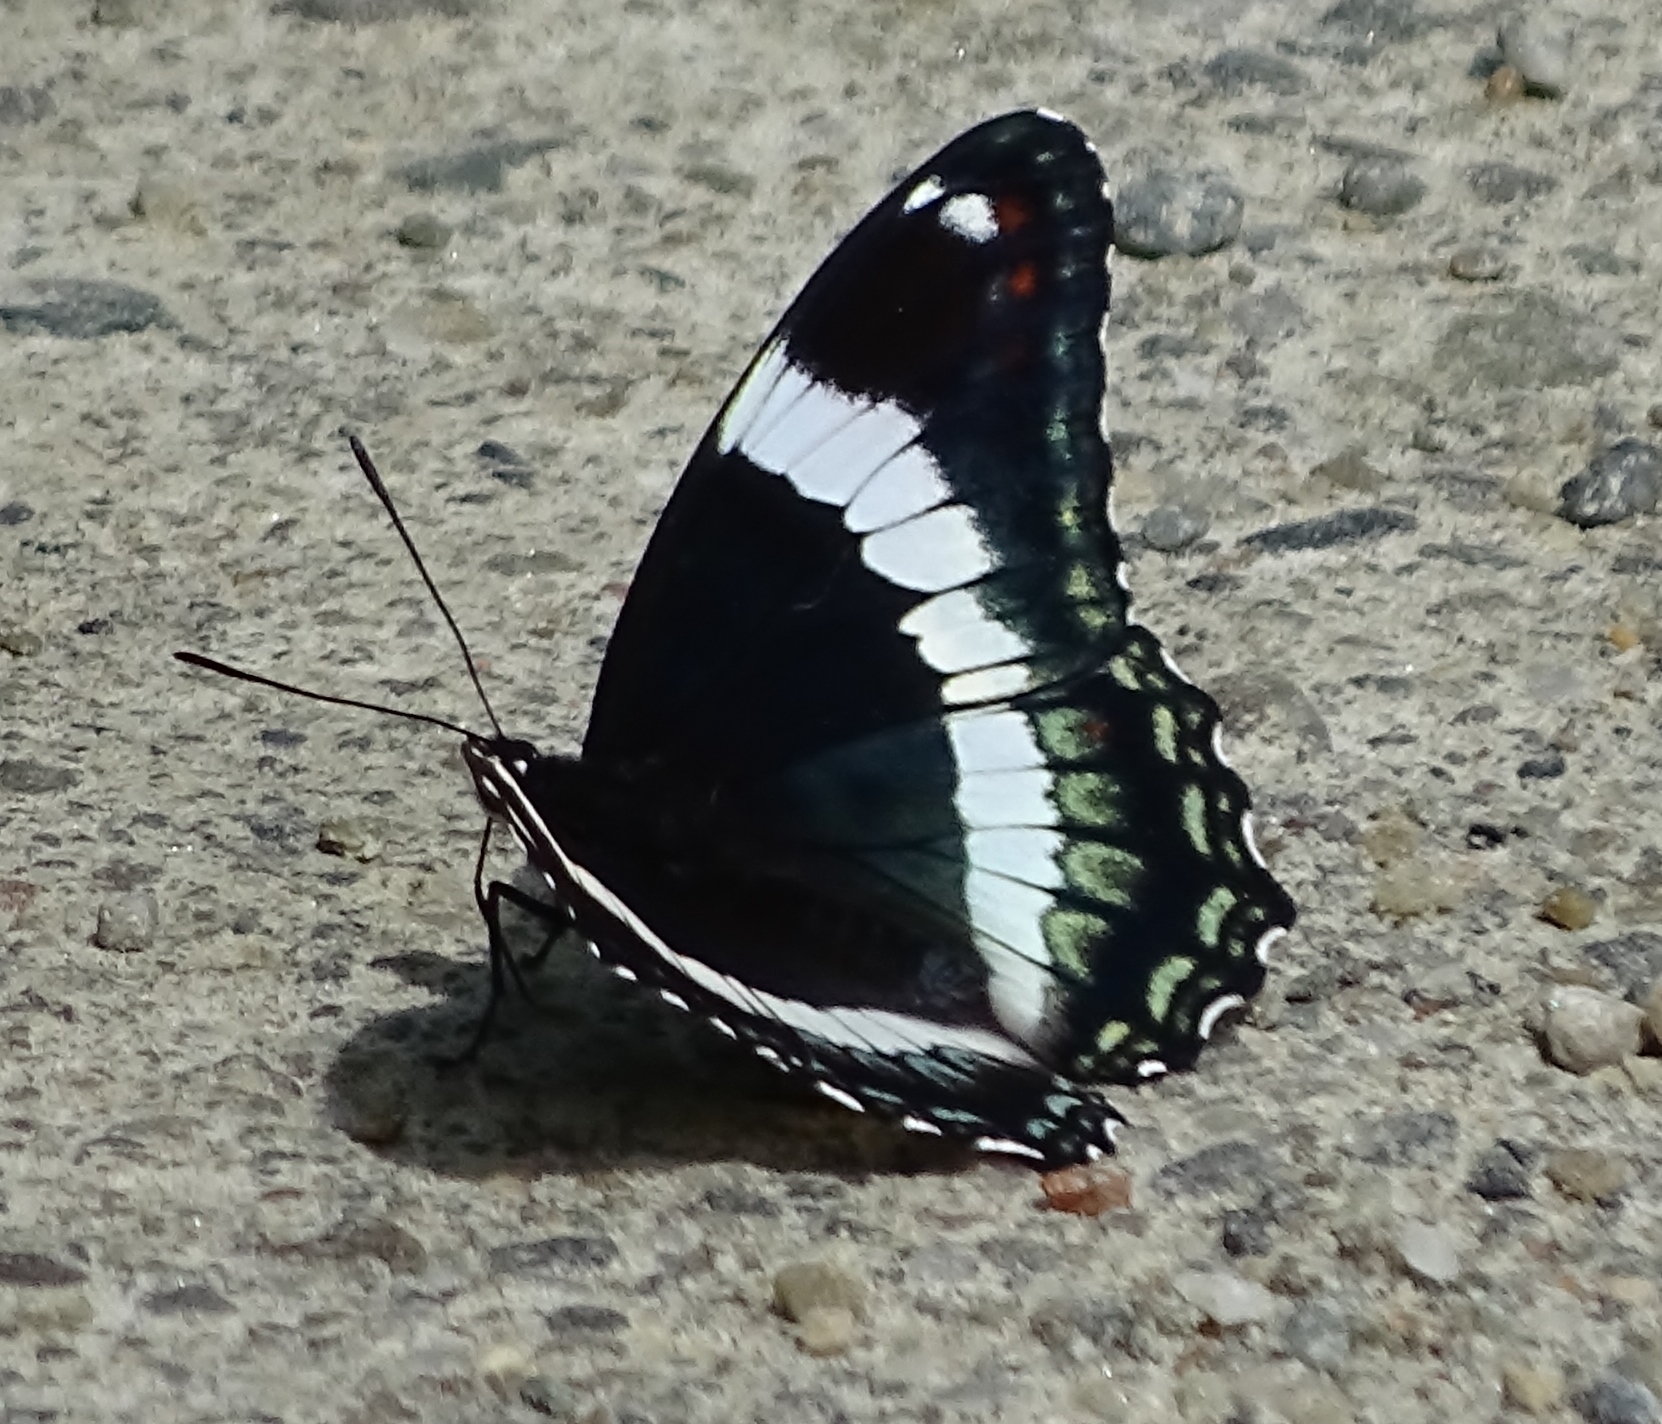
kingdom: Animalia
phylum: Arthropoda
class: Insecta
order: Lepidoptera
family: Nymphalidae
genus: Limenitis
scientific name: Limenitis arthemis
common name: Red-spotted admiral
